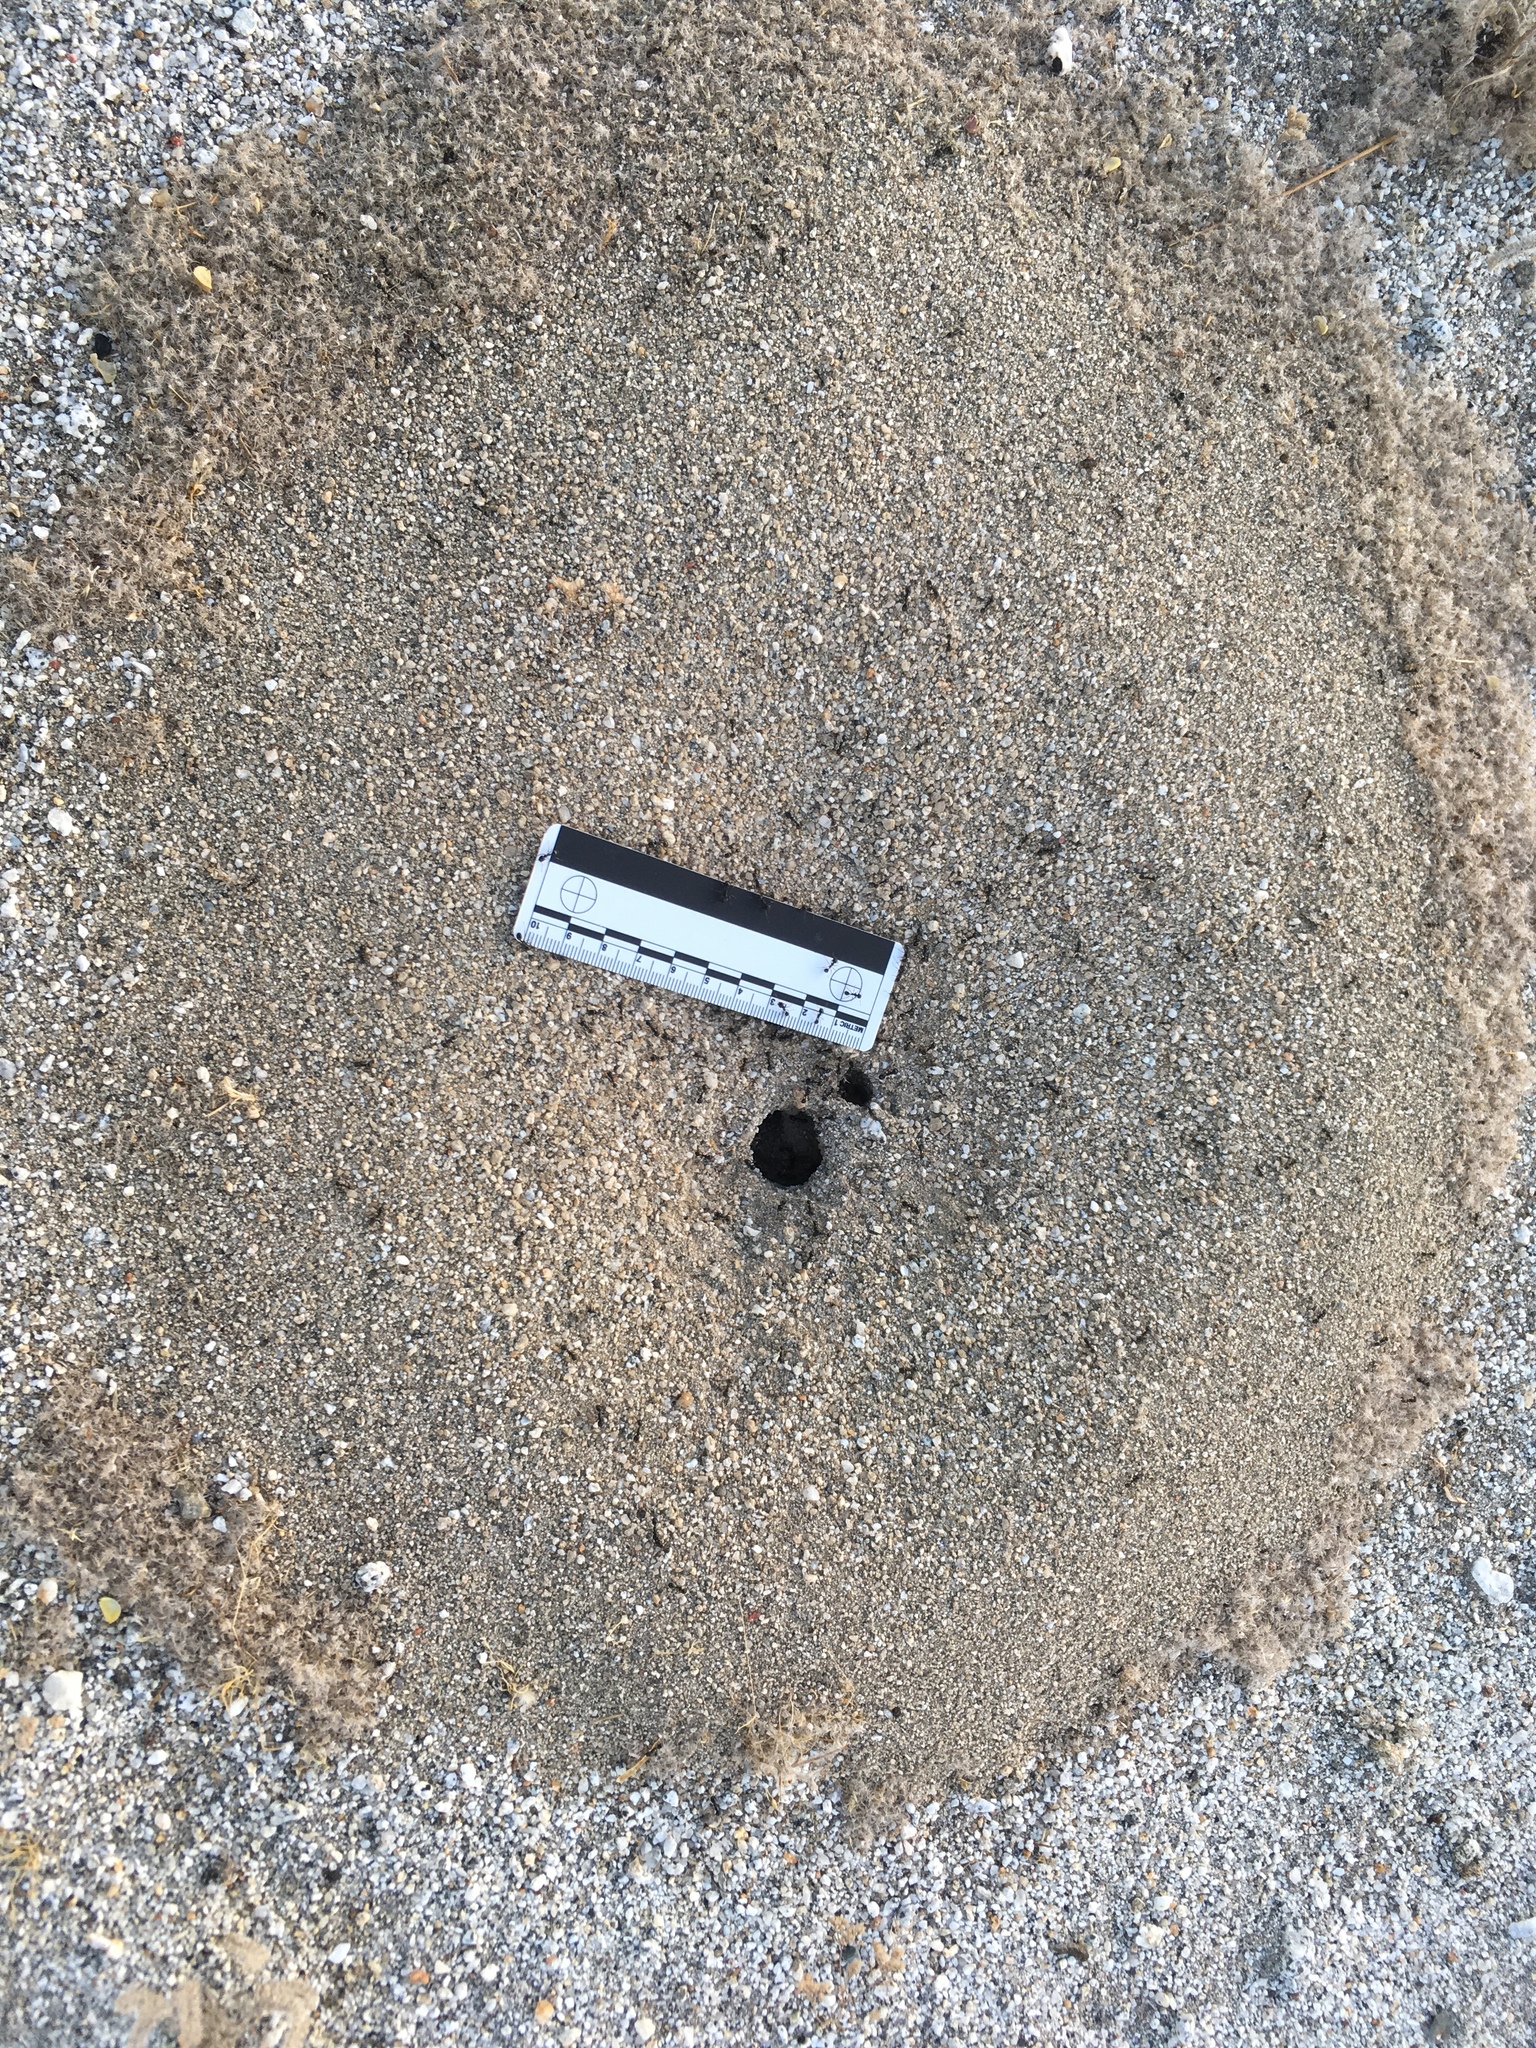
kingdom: Animalia
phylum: Arthropoda
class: Insecta
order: Hymenoptera
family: Formicidae
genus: Messor
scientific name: Messor pergandei
